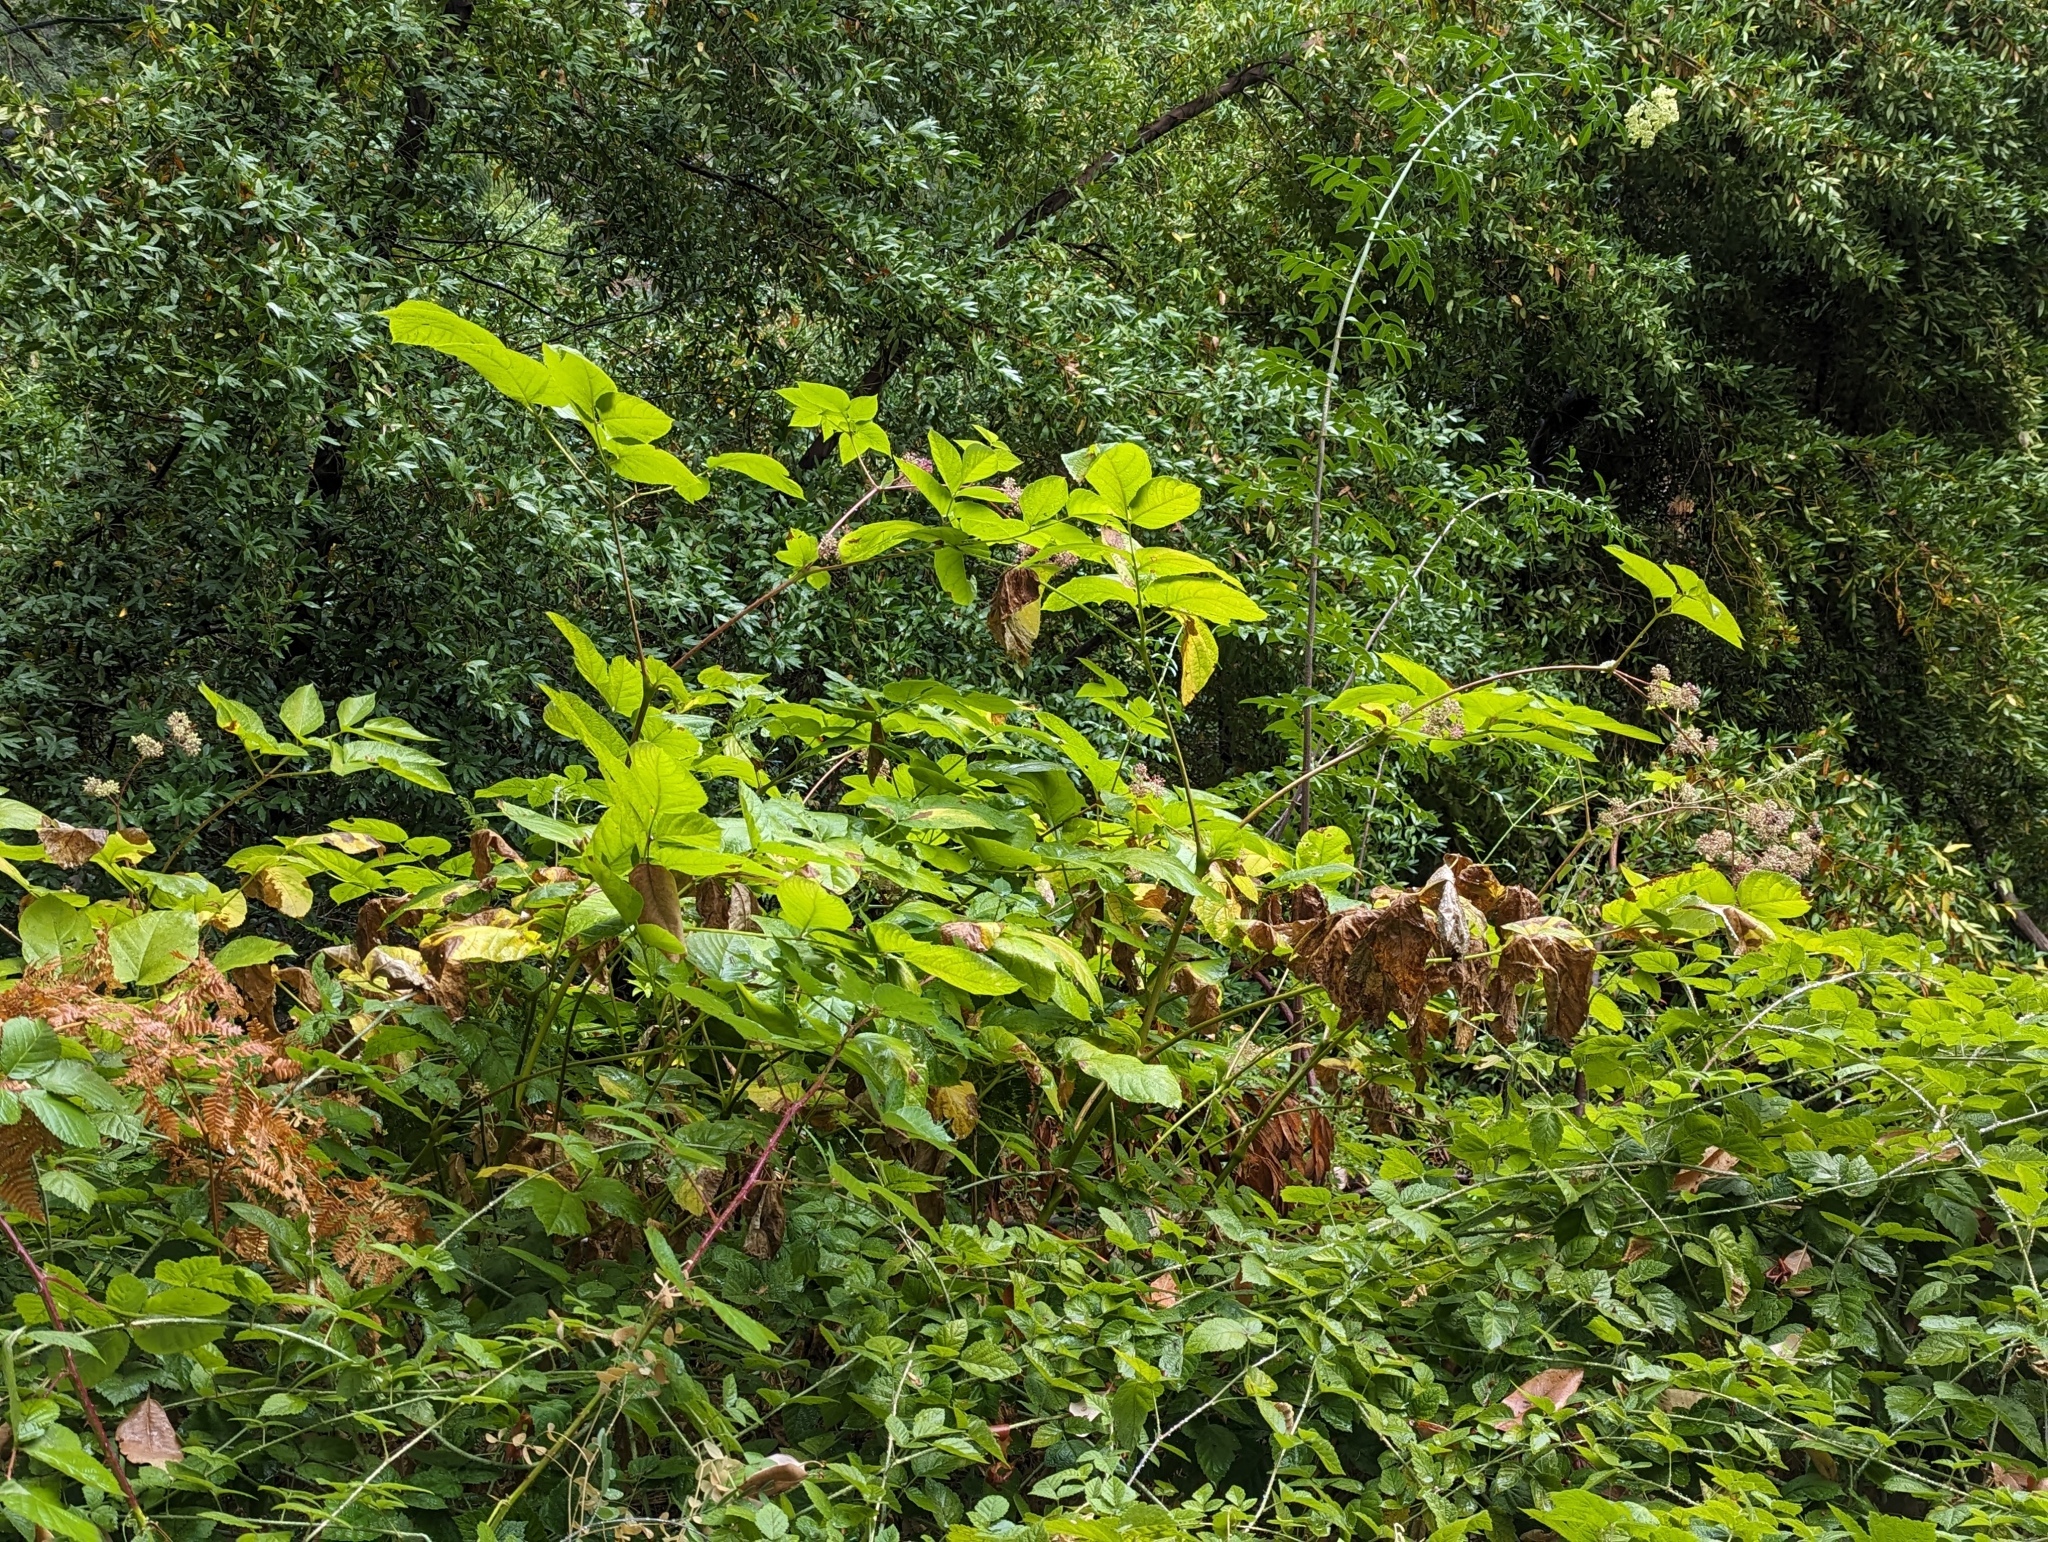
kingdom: Plantae
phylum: Tracheophyta
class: Magnoliopsida
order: Apiales
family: Araliaceae
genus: Aralia
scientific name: Aralia californica
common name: California-ginseng
